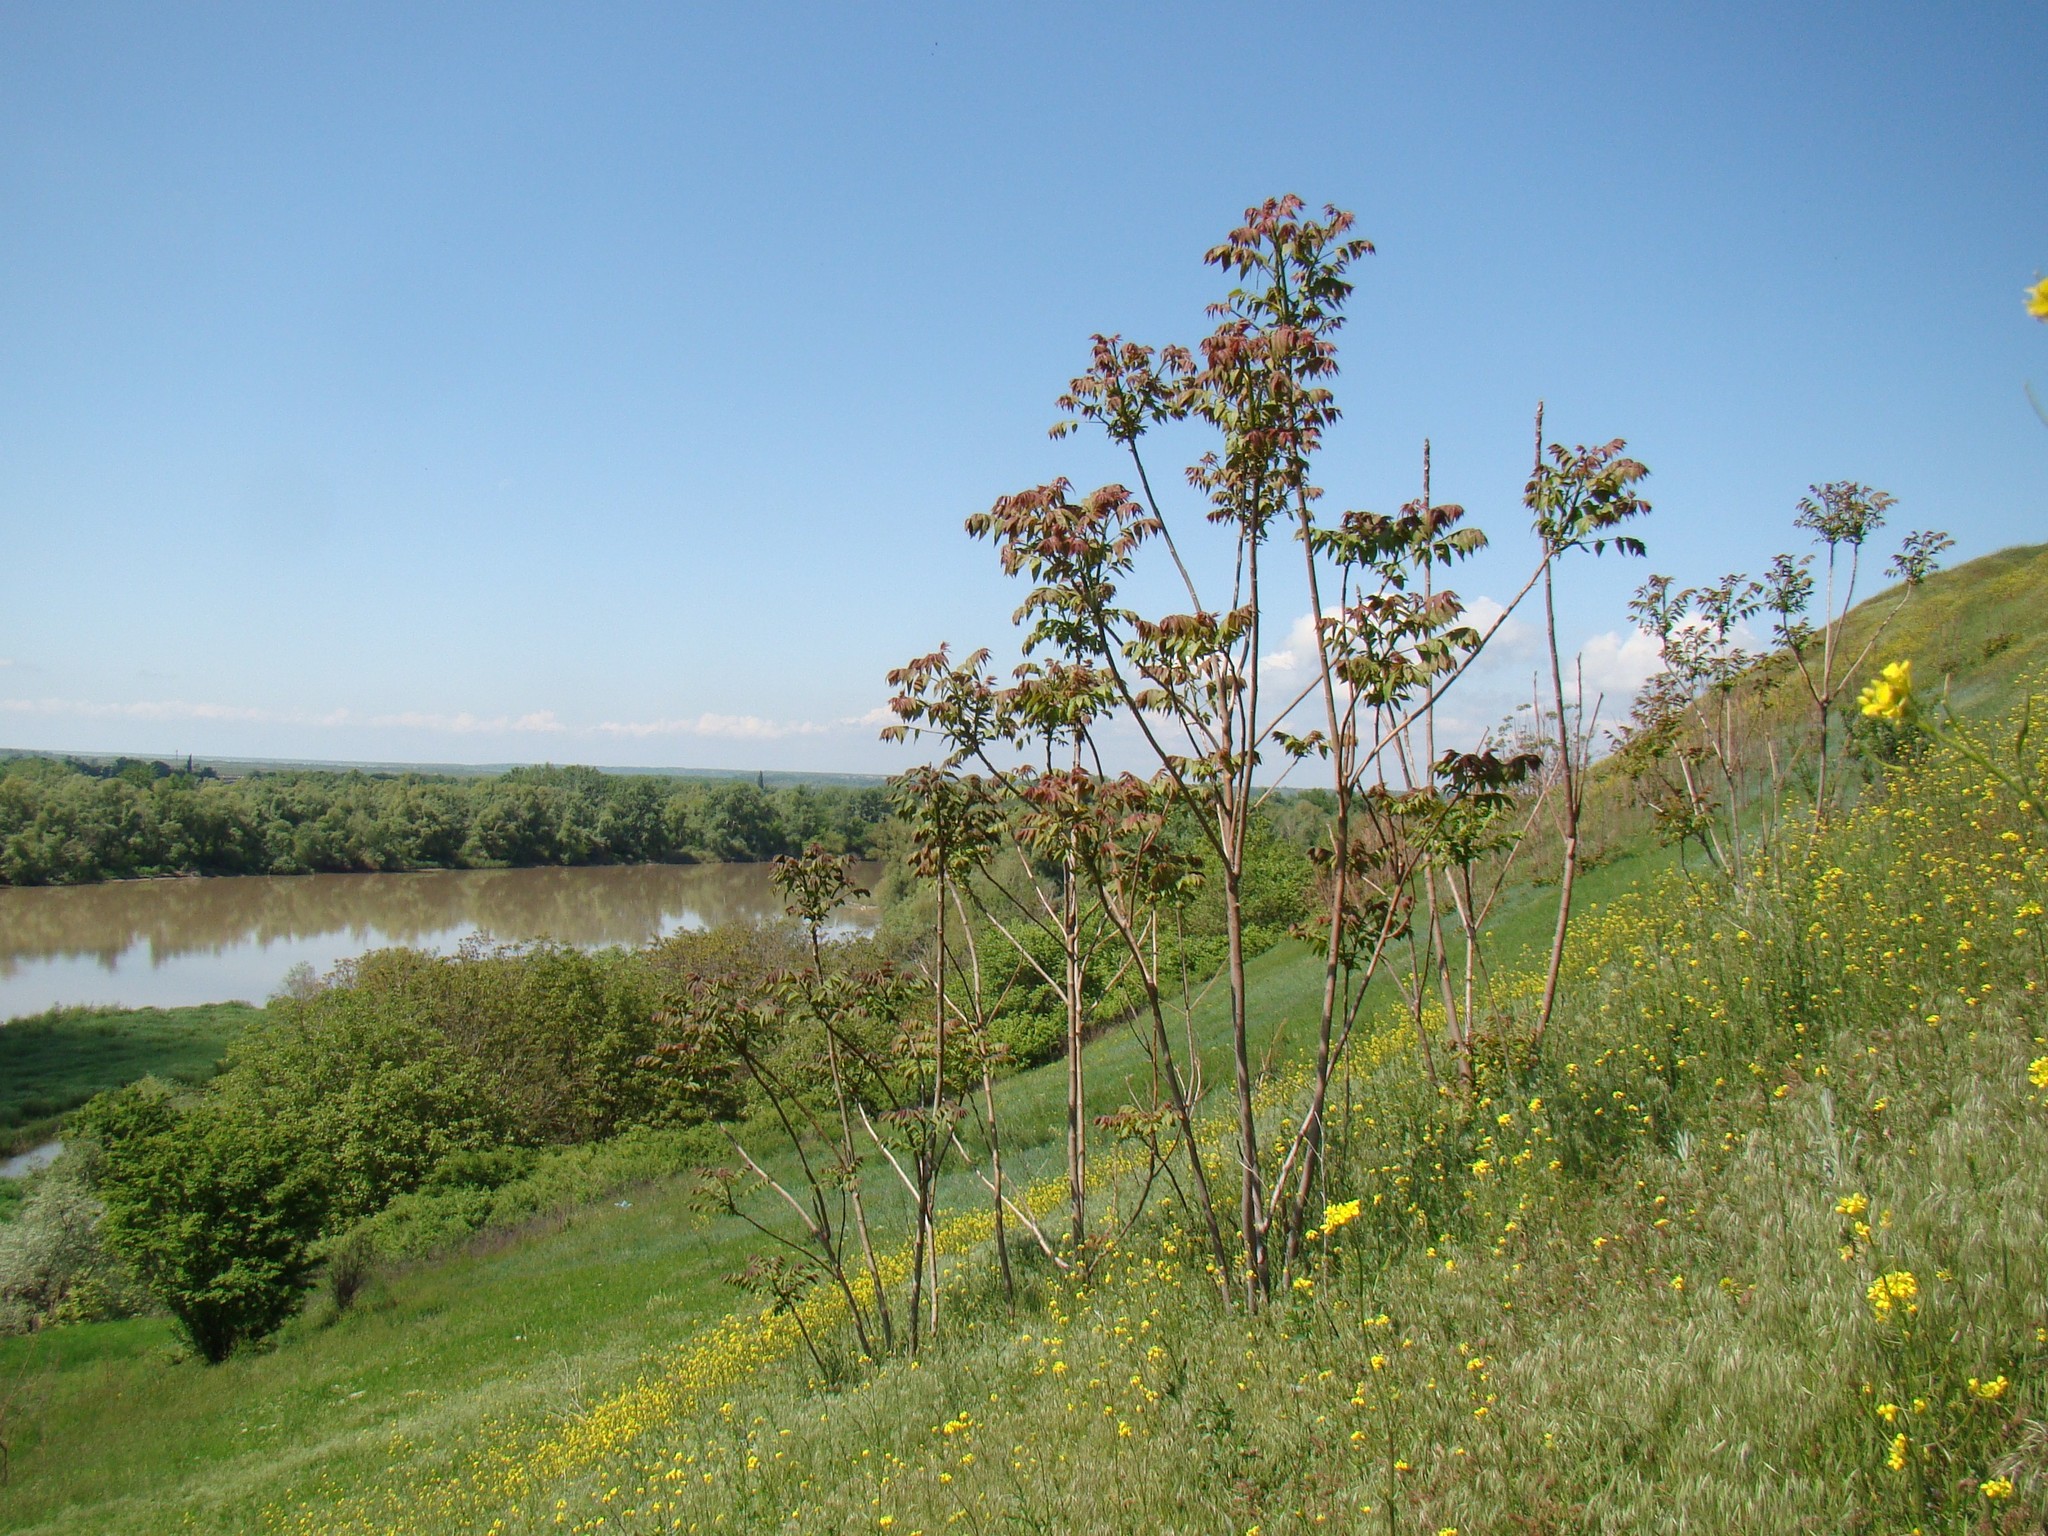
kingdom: Plantae
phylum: Tracheophyta
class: Magnoliopsida
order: Sapindales
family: Simaroubaceae
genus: Ailanthus
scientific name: Ailanthus altissima
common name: Tree-of-heaven
